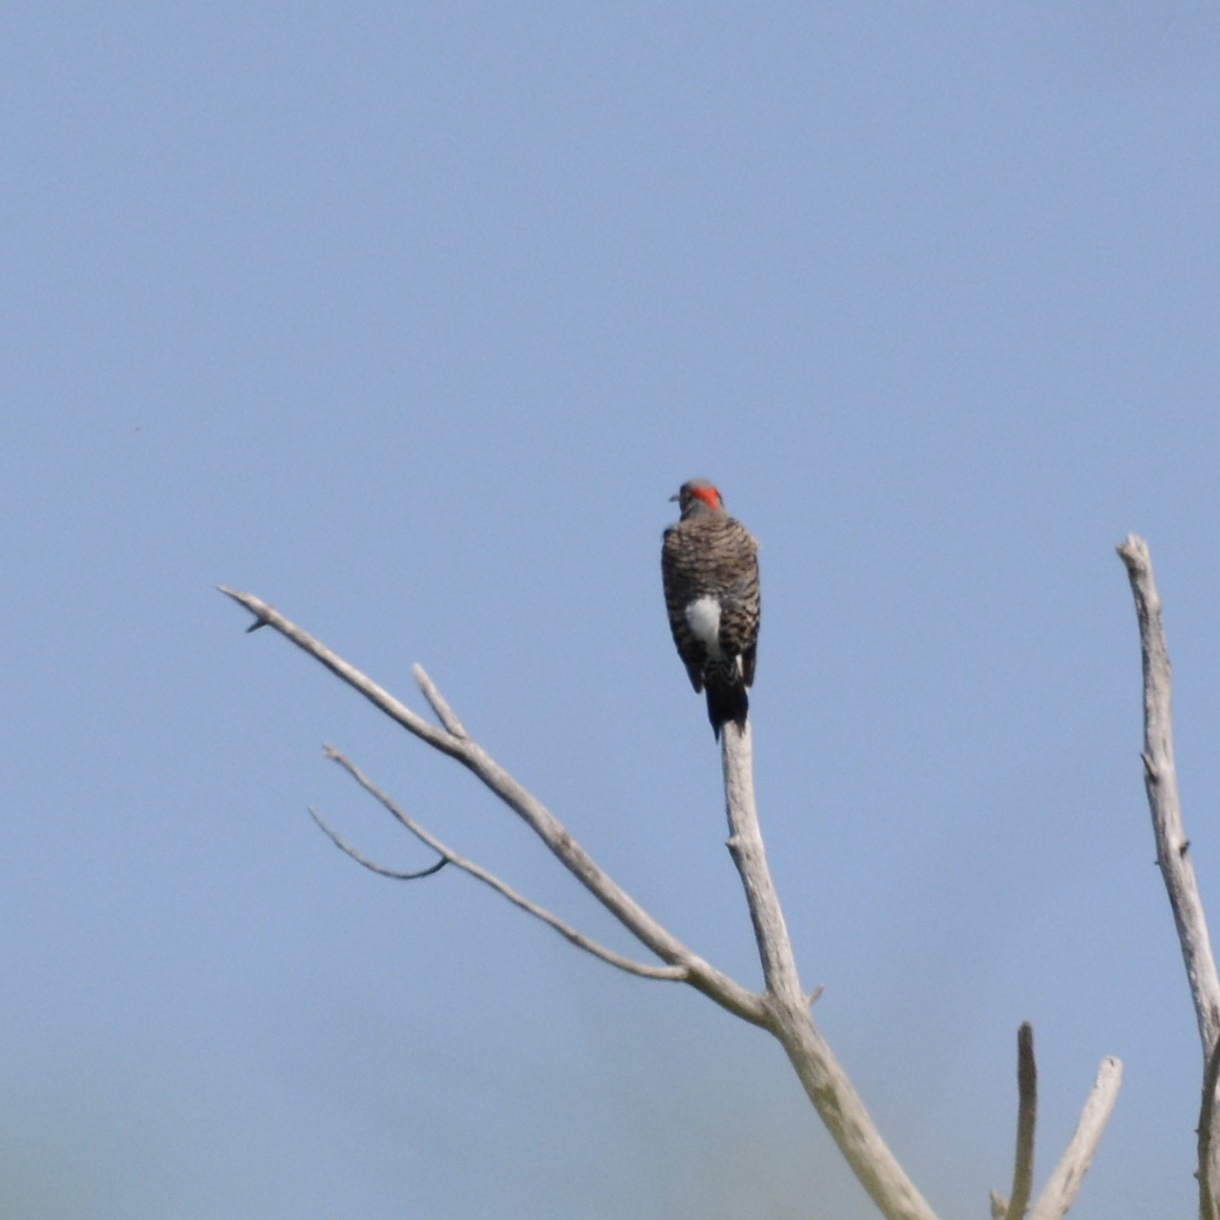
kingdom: Animalia
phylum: Chordata
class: Aves
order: Piciformes
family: Picidae
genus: Colaptes
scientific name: Colaptes auratus
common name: Northern flicker
